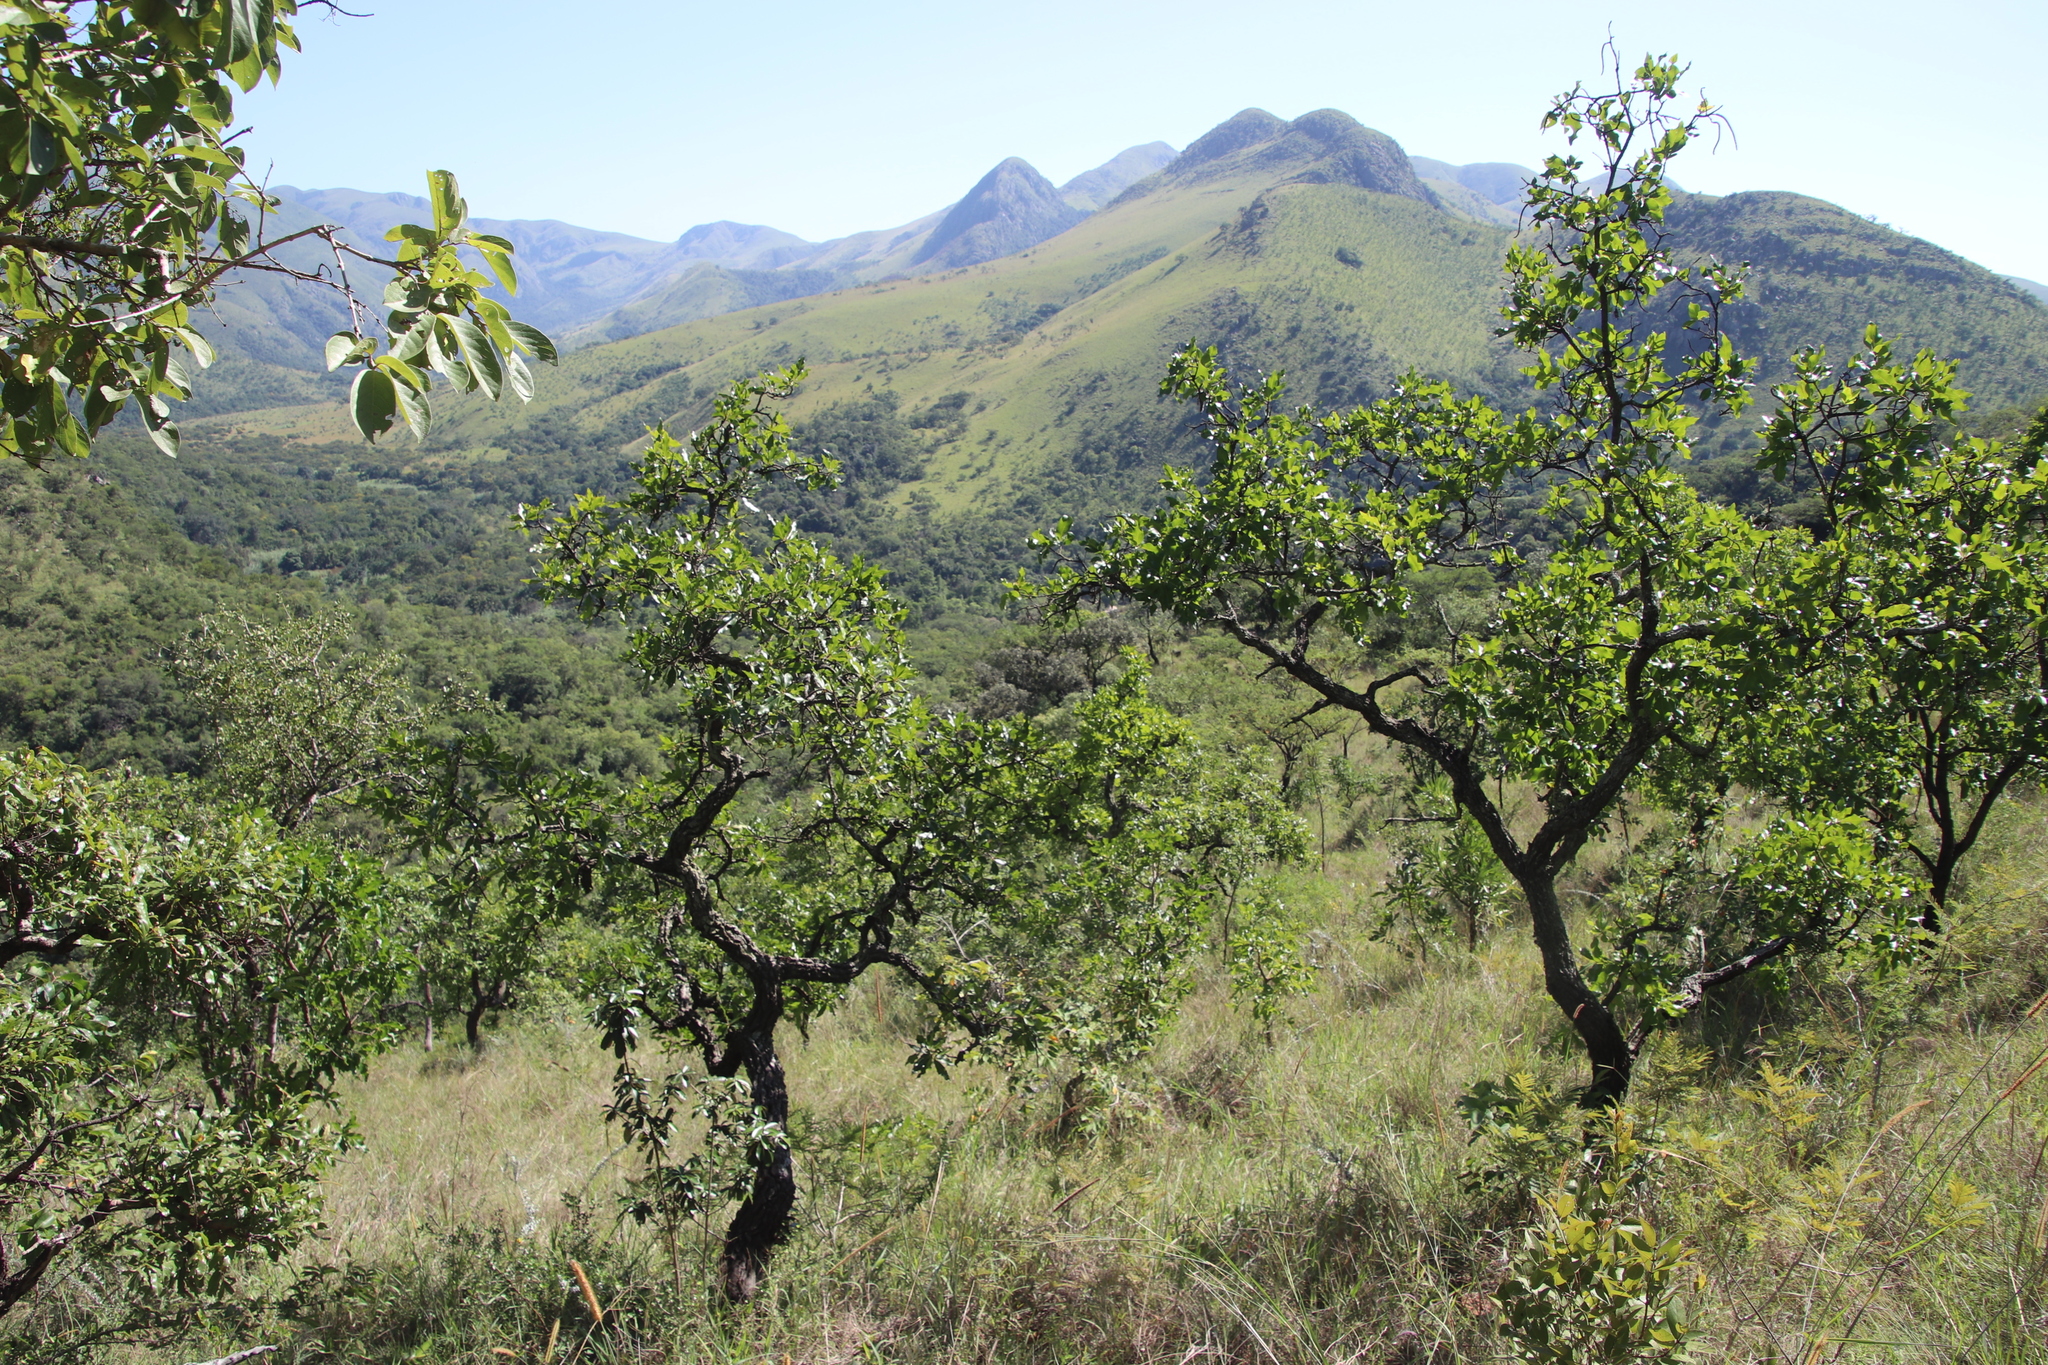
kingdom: Plantae
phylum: Tracheophyta
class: Magnoliopsida
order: Myrtales
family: Combretaceae
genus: Combretum
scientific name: Combretum zeyheri
